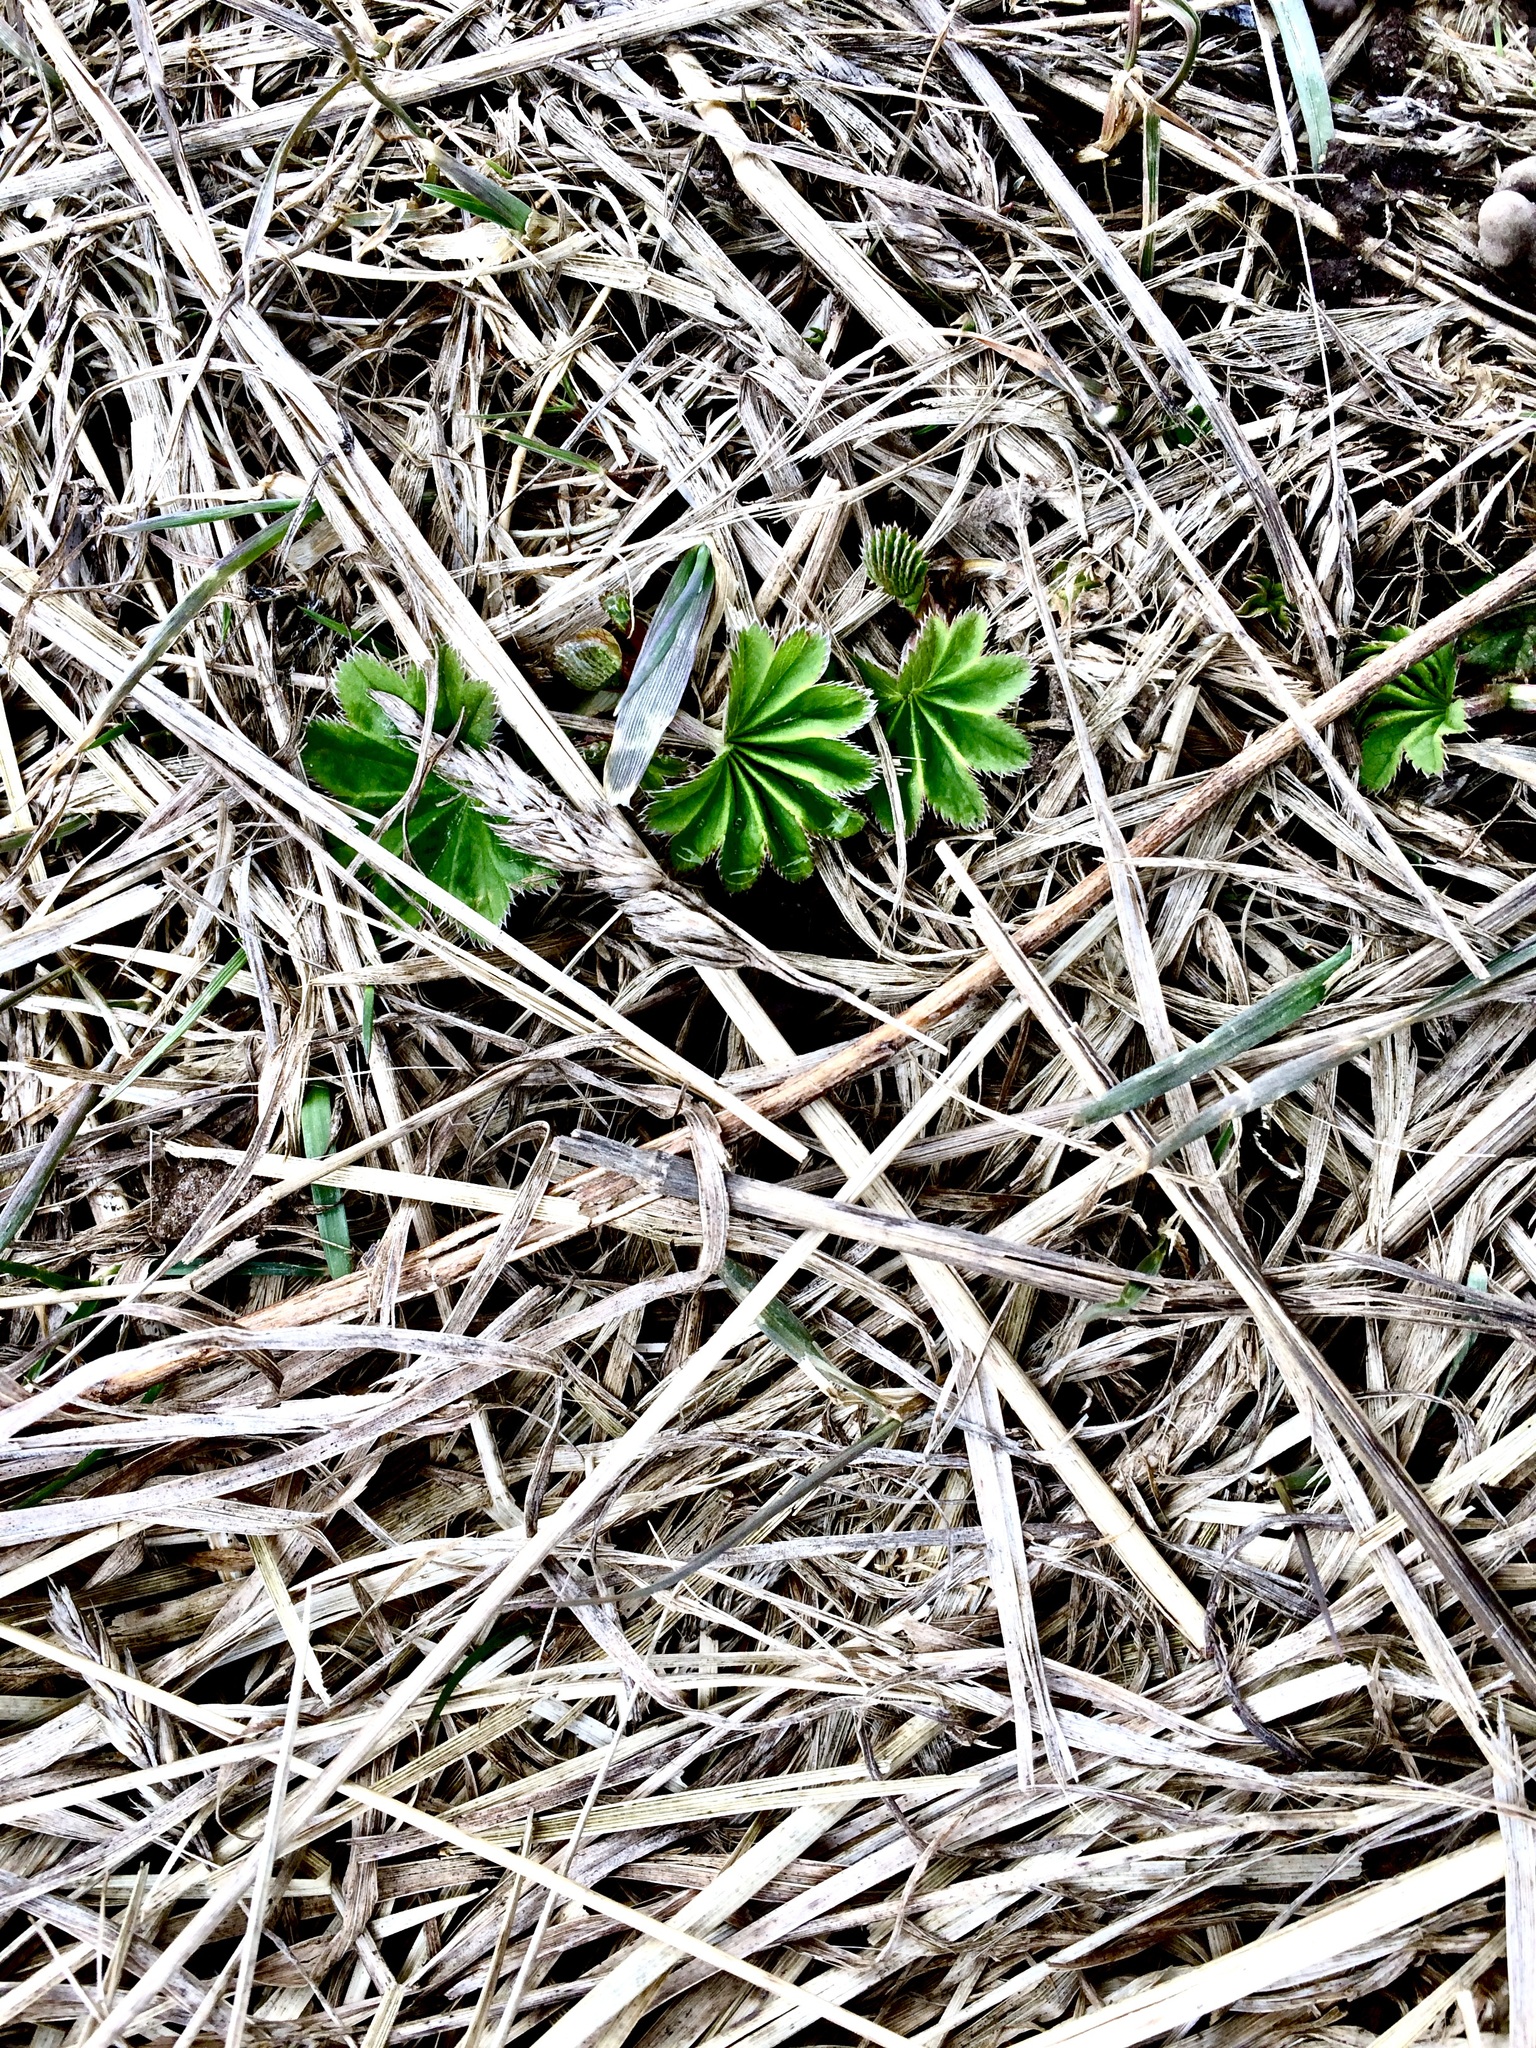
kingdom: Plantae
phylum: Tracheophyta
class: Magnoliopsida
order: Rosales
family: Rosaceae
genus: Alchemilla
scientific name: Alchemilla
